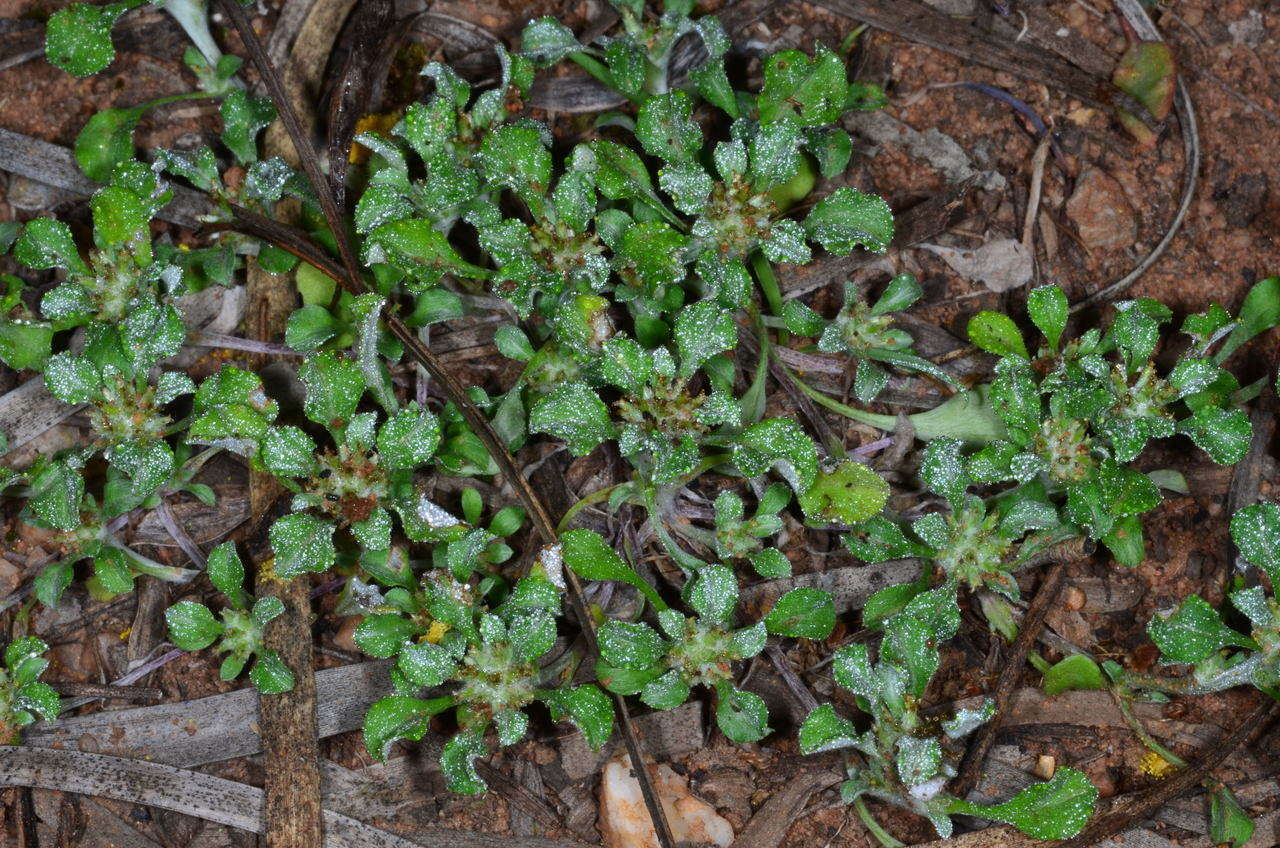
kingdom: Plantae
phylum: Tracheophyta
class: Magnoliopsida
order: Asterales
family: Asteraceae
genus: Stuartina
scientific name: Stuartina muelleri
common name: Spoon-leaved cudweed
